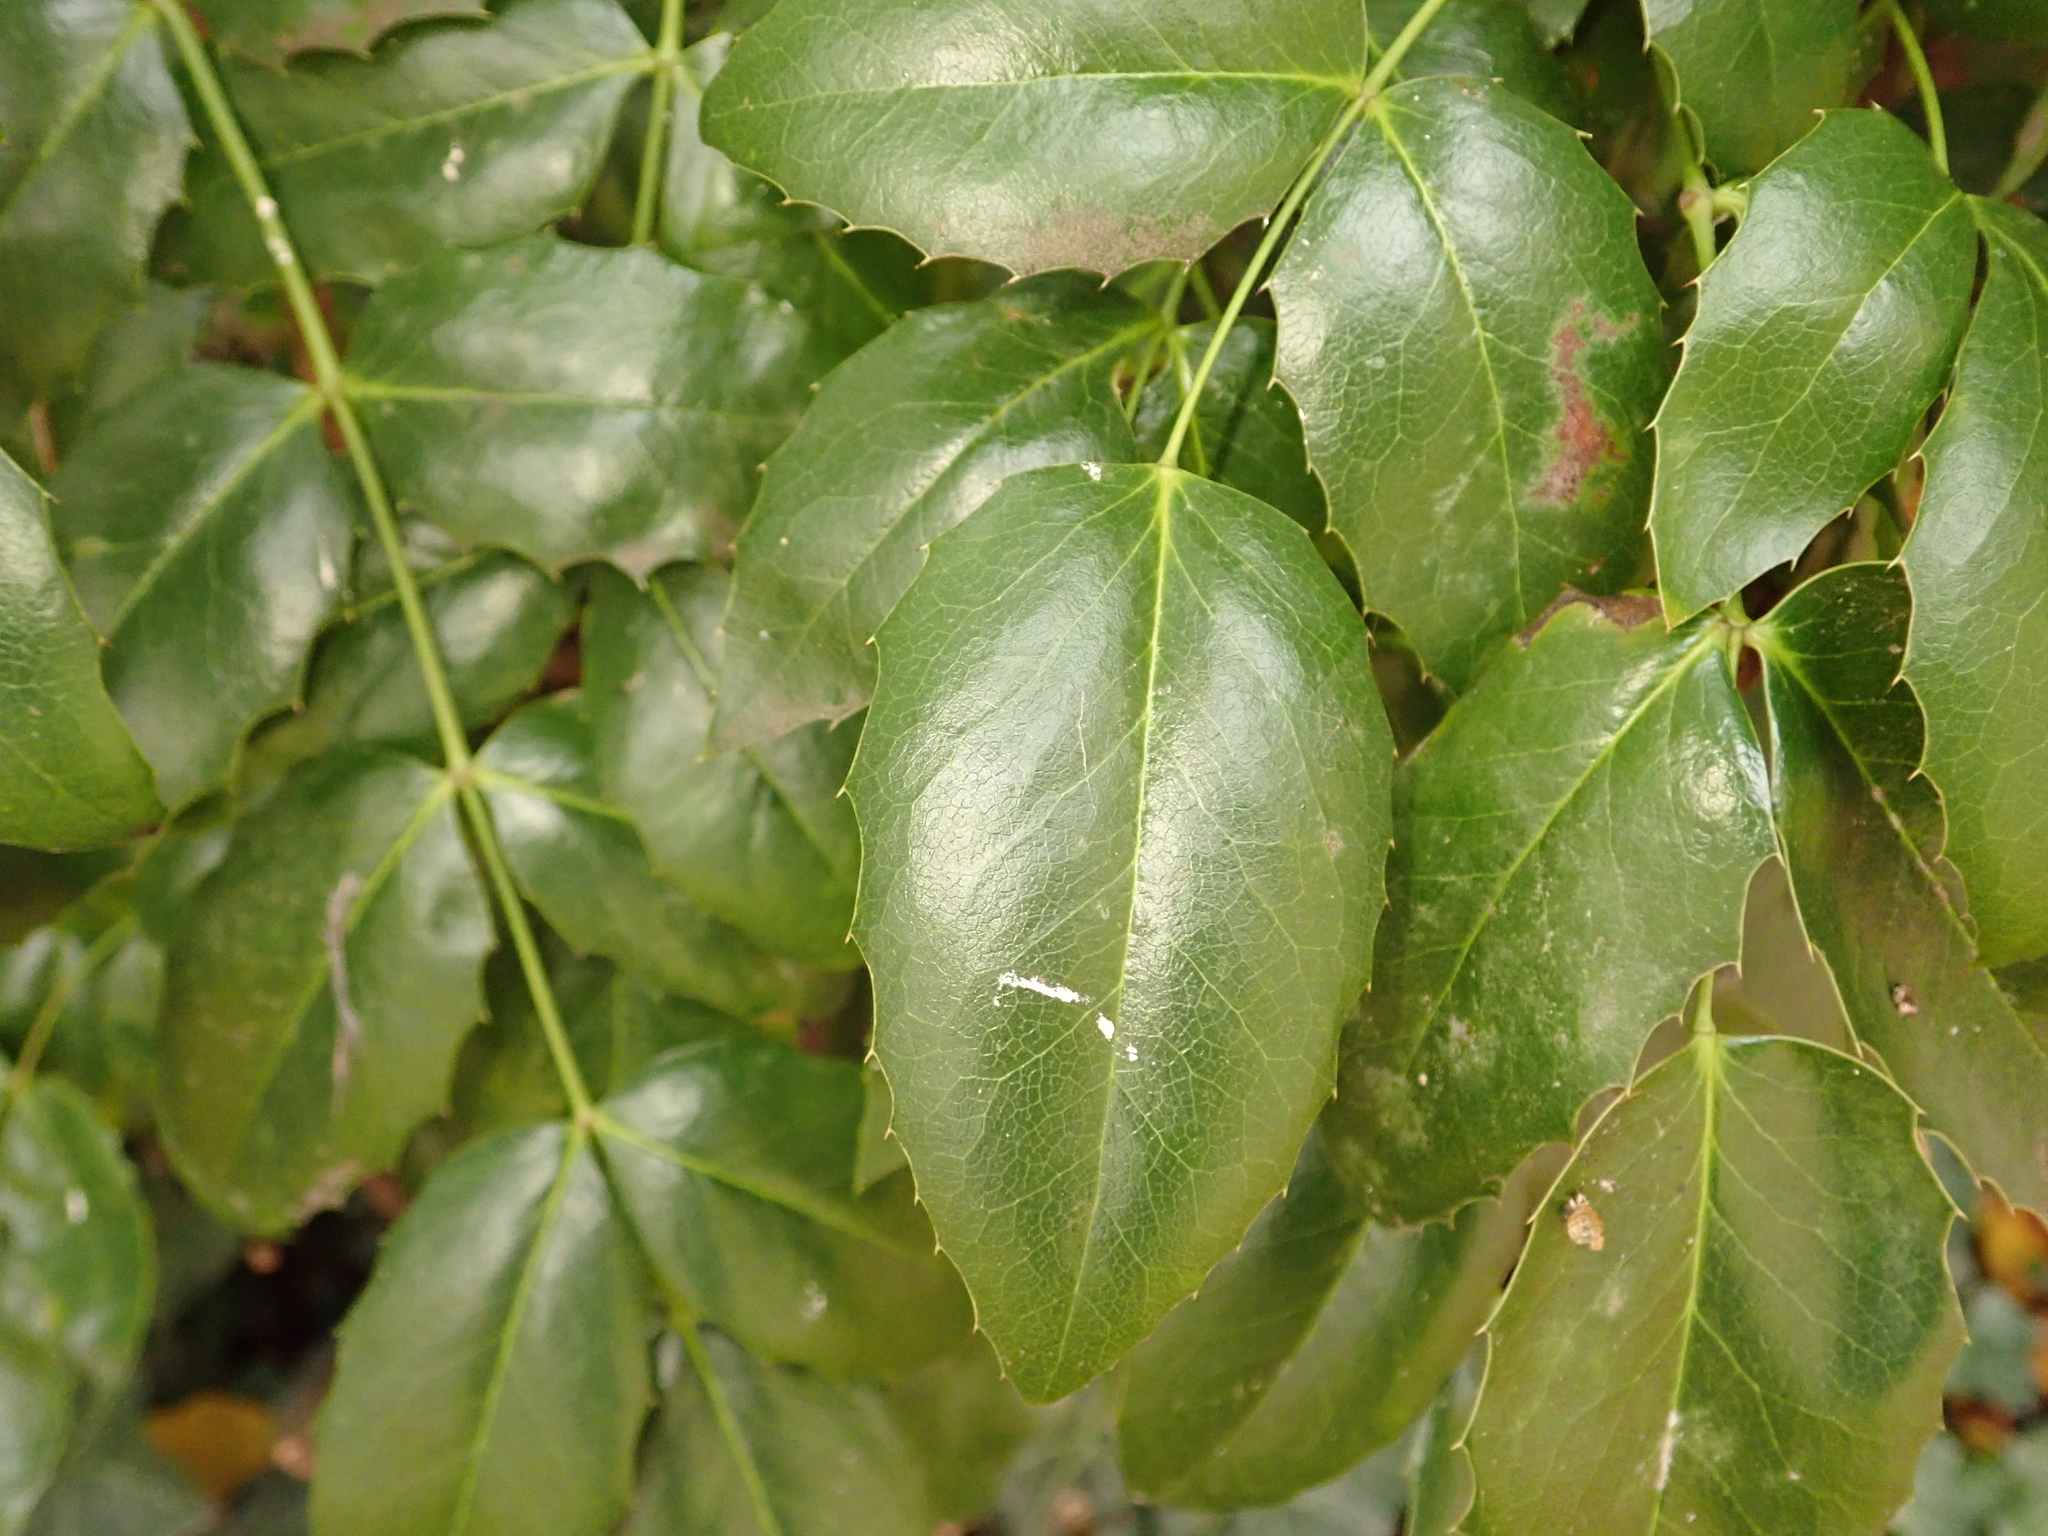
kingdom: Plantae
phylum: Tracheophyta
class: Magnoliopsida
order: Ranunculales
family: Berberidaceae
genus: Mahonia
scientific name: Mahonia aquifolium
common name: Oregon-grape
